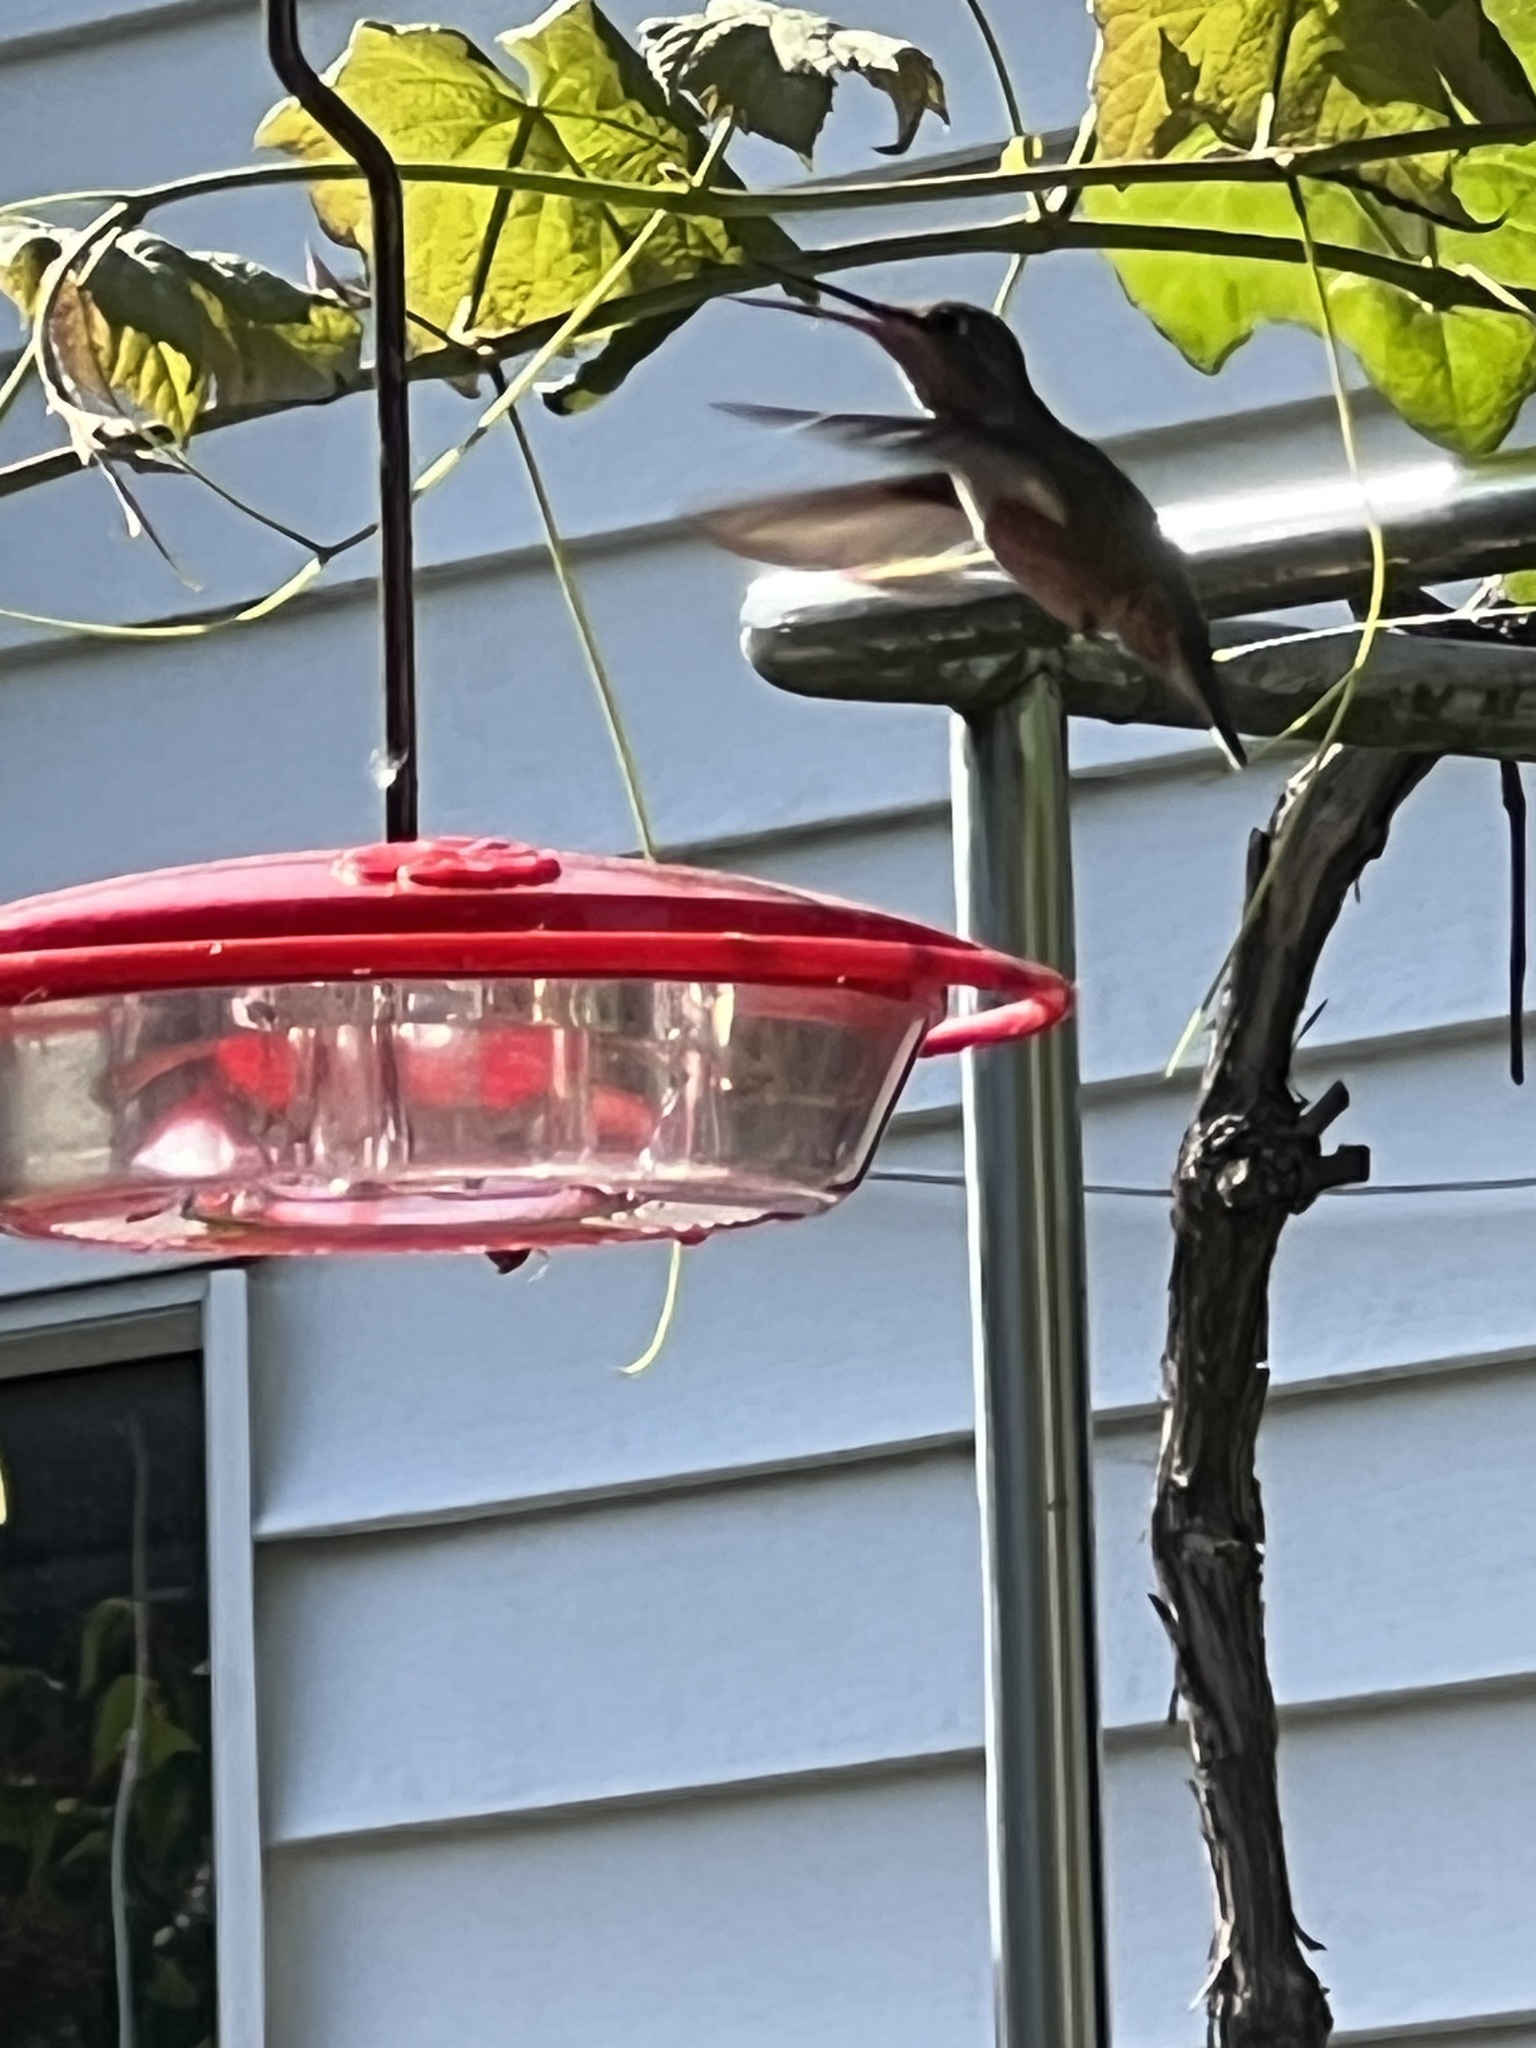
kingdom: Animalia
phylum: Chordata
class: Aves
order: Apodiformes
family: Trochilidae
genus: Calypte
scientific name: Calypte anna
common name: Anna's hummingbird
